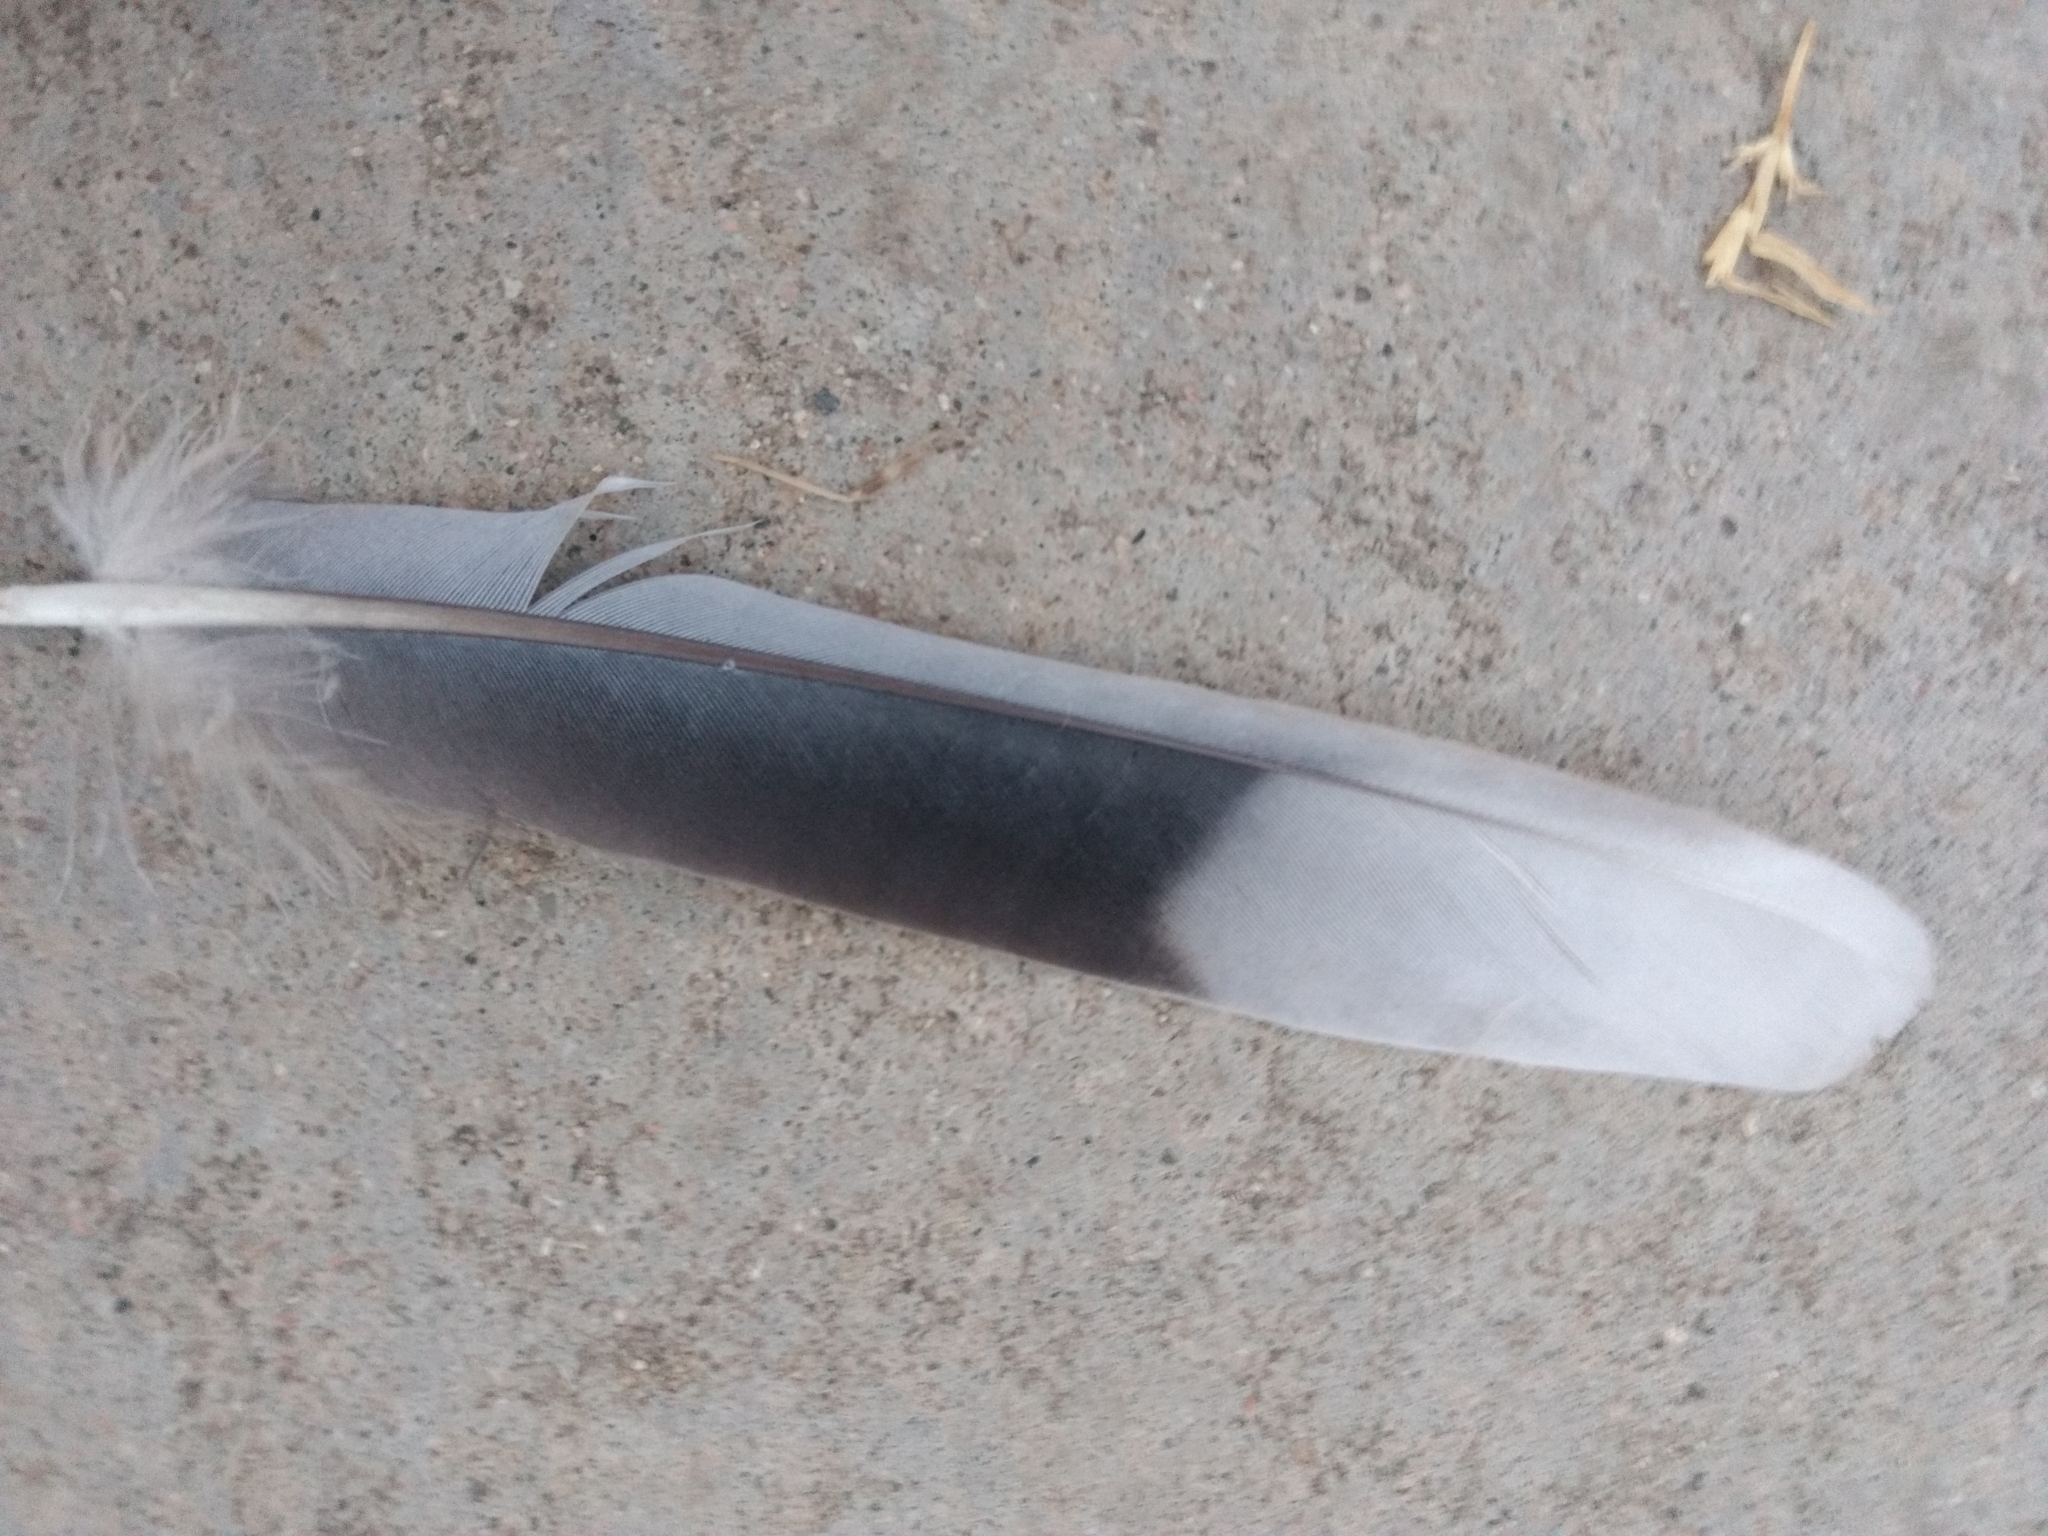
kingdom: Animalia
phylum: Chordata
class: Aves
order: Columbiformes
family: Columbidae
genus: Streptopelia
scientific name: Streptopelia decaocto
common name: Eurasian collared dove
